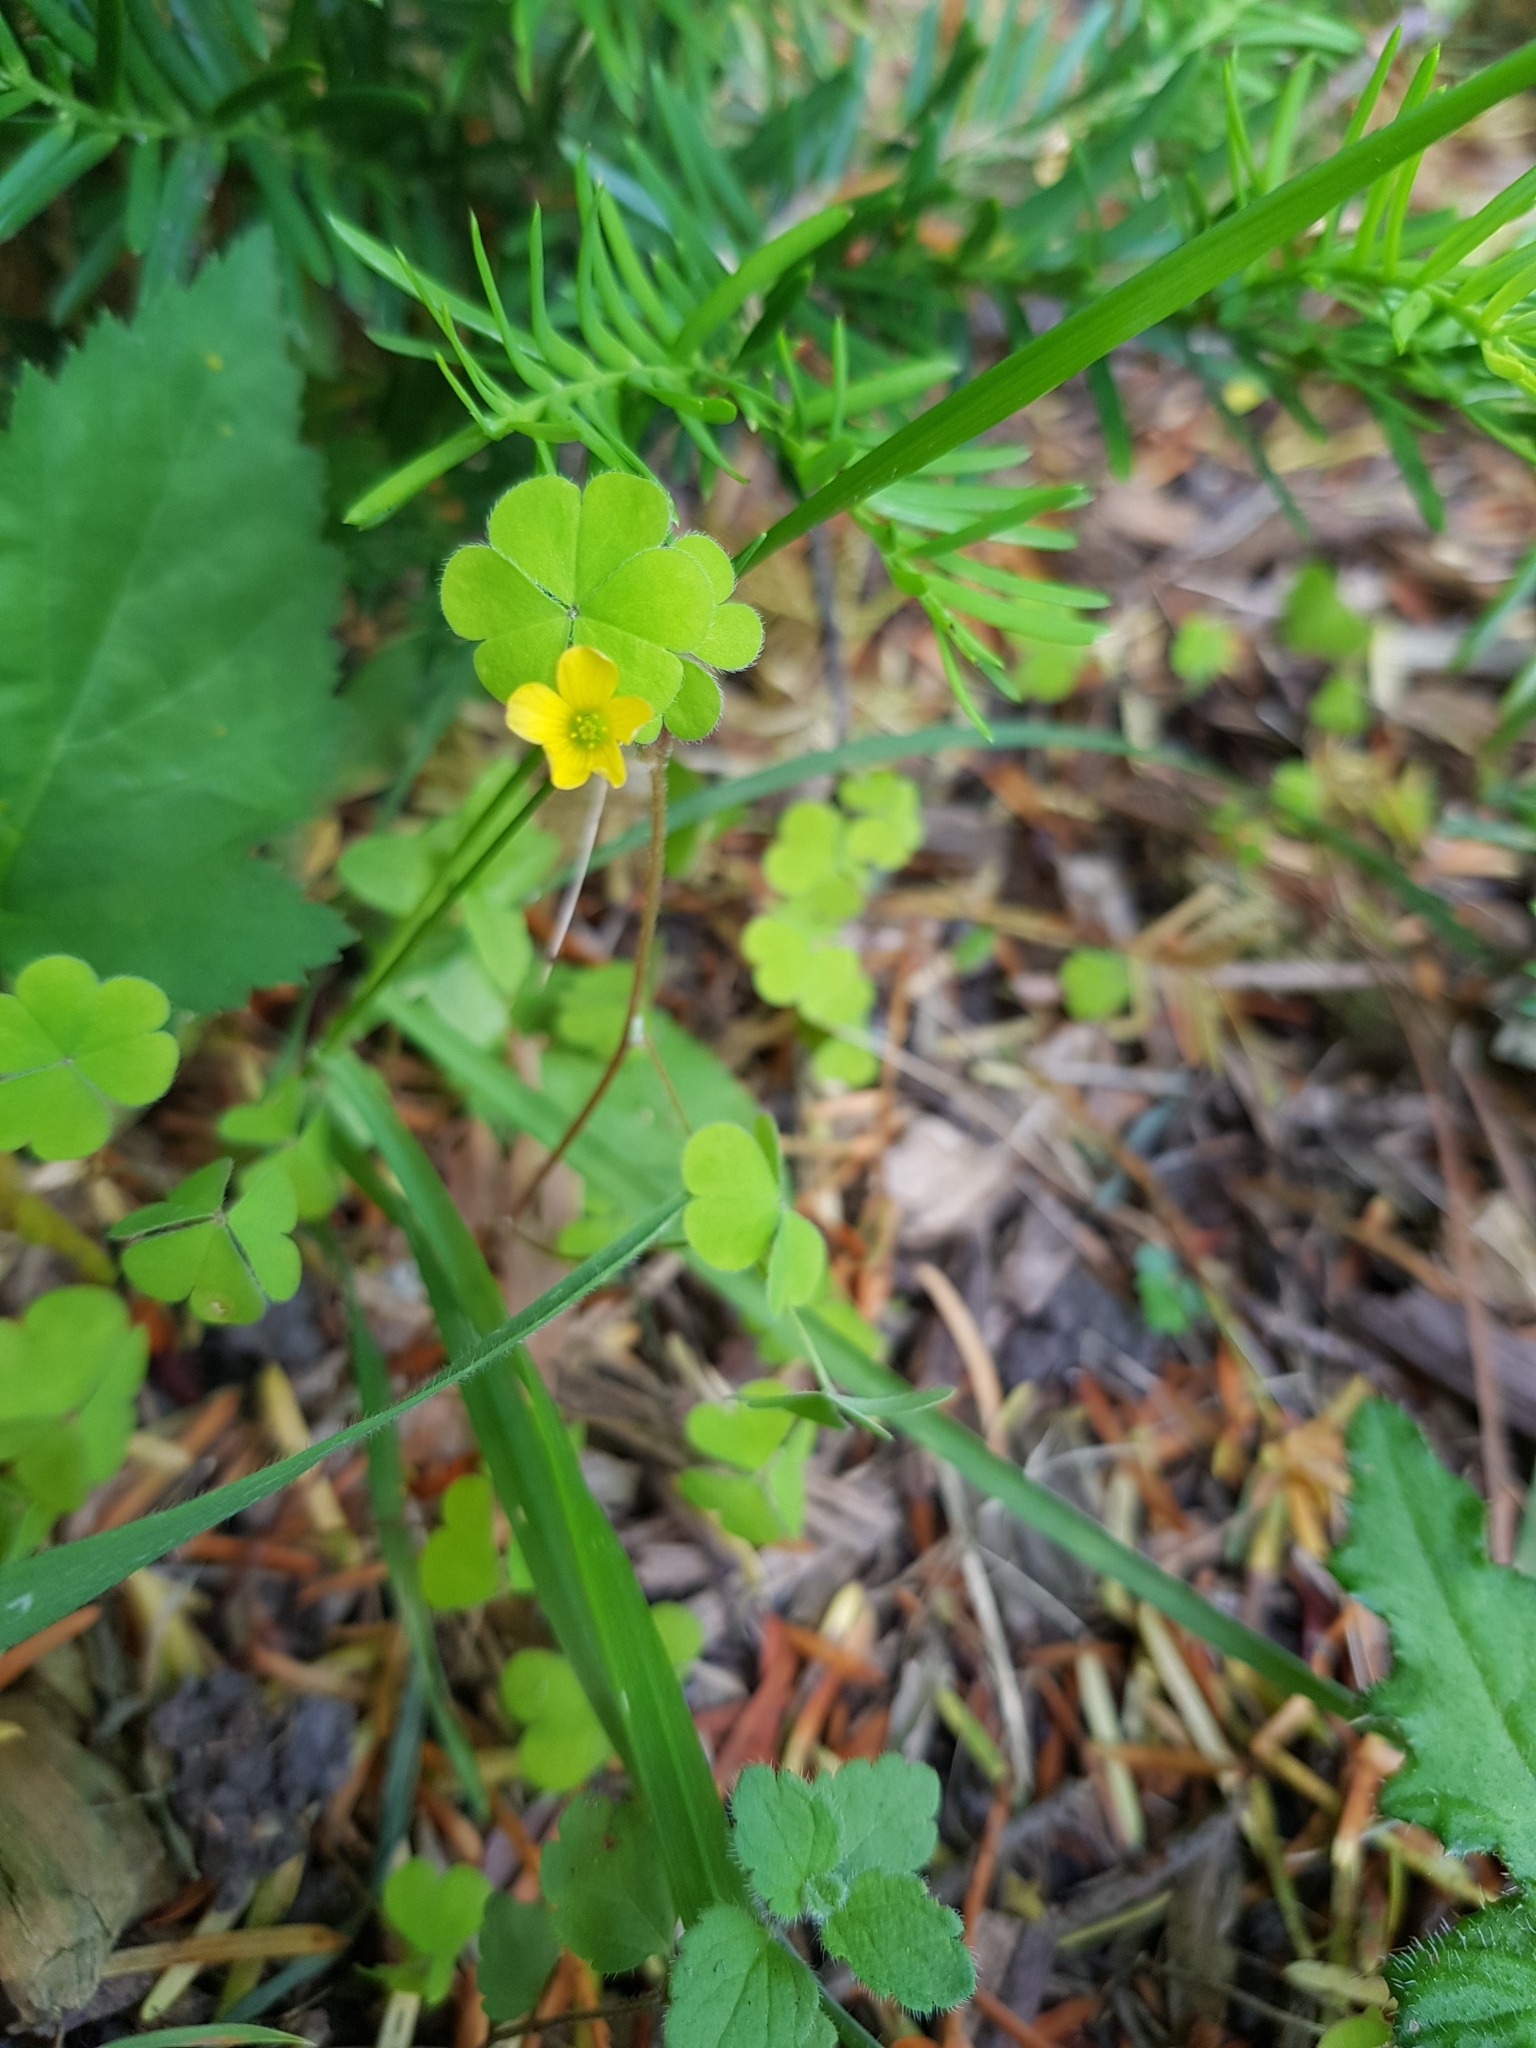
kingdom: Plantae
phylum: Tracheophyta
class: Magnoliopsida
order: Oxalidales
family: Oxalidaceae
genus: Oxalis
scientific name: Oxalis stricta
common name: Upright yellow-sorrel
